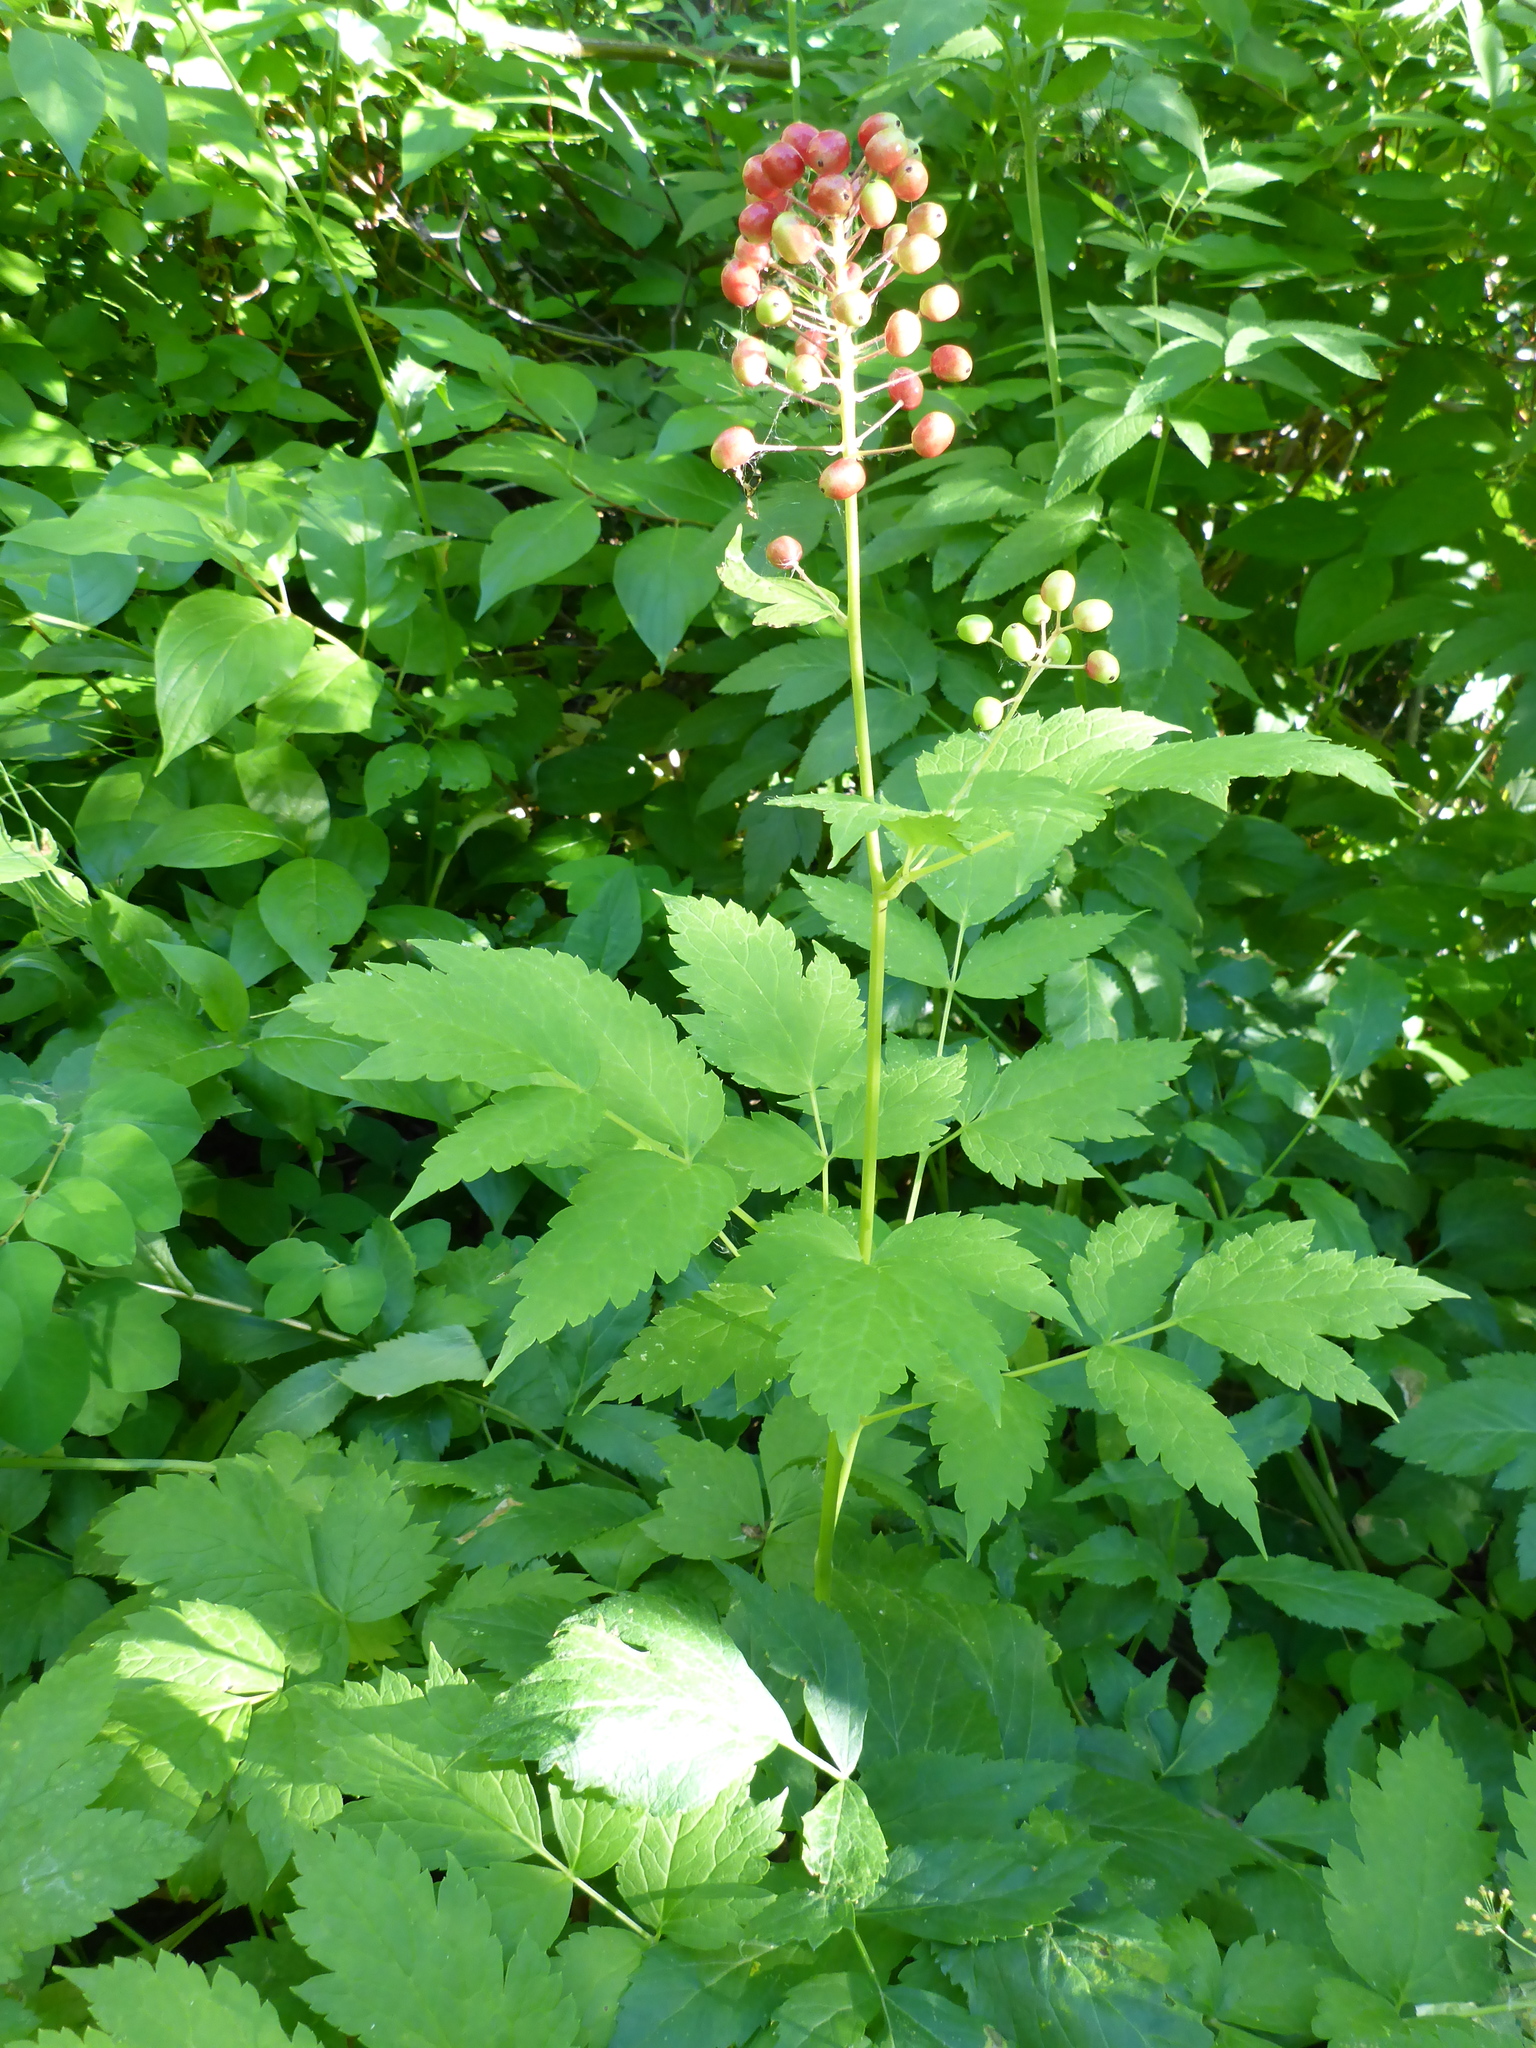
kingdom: Plantae
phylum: Tracheophyta
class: Magnoliopsida
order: Ranunculales
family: Ranunculaceae
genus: Actaea
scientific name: Actaea rubra
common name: Red baneberry
